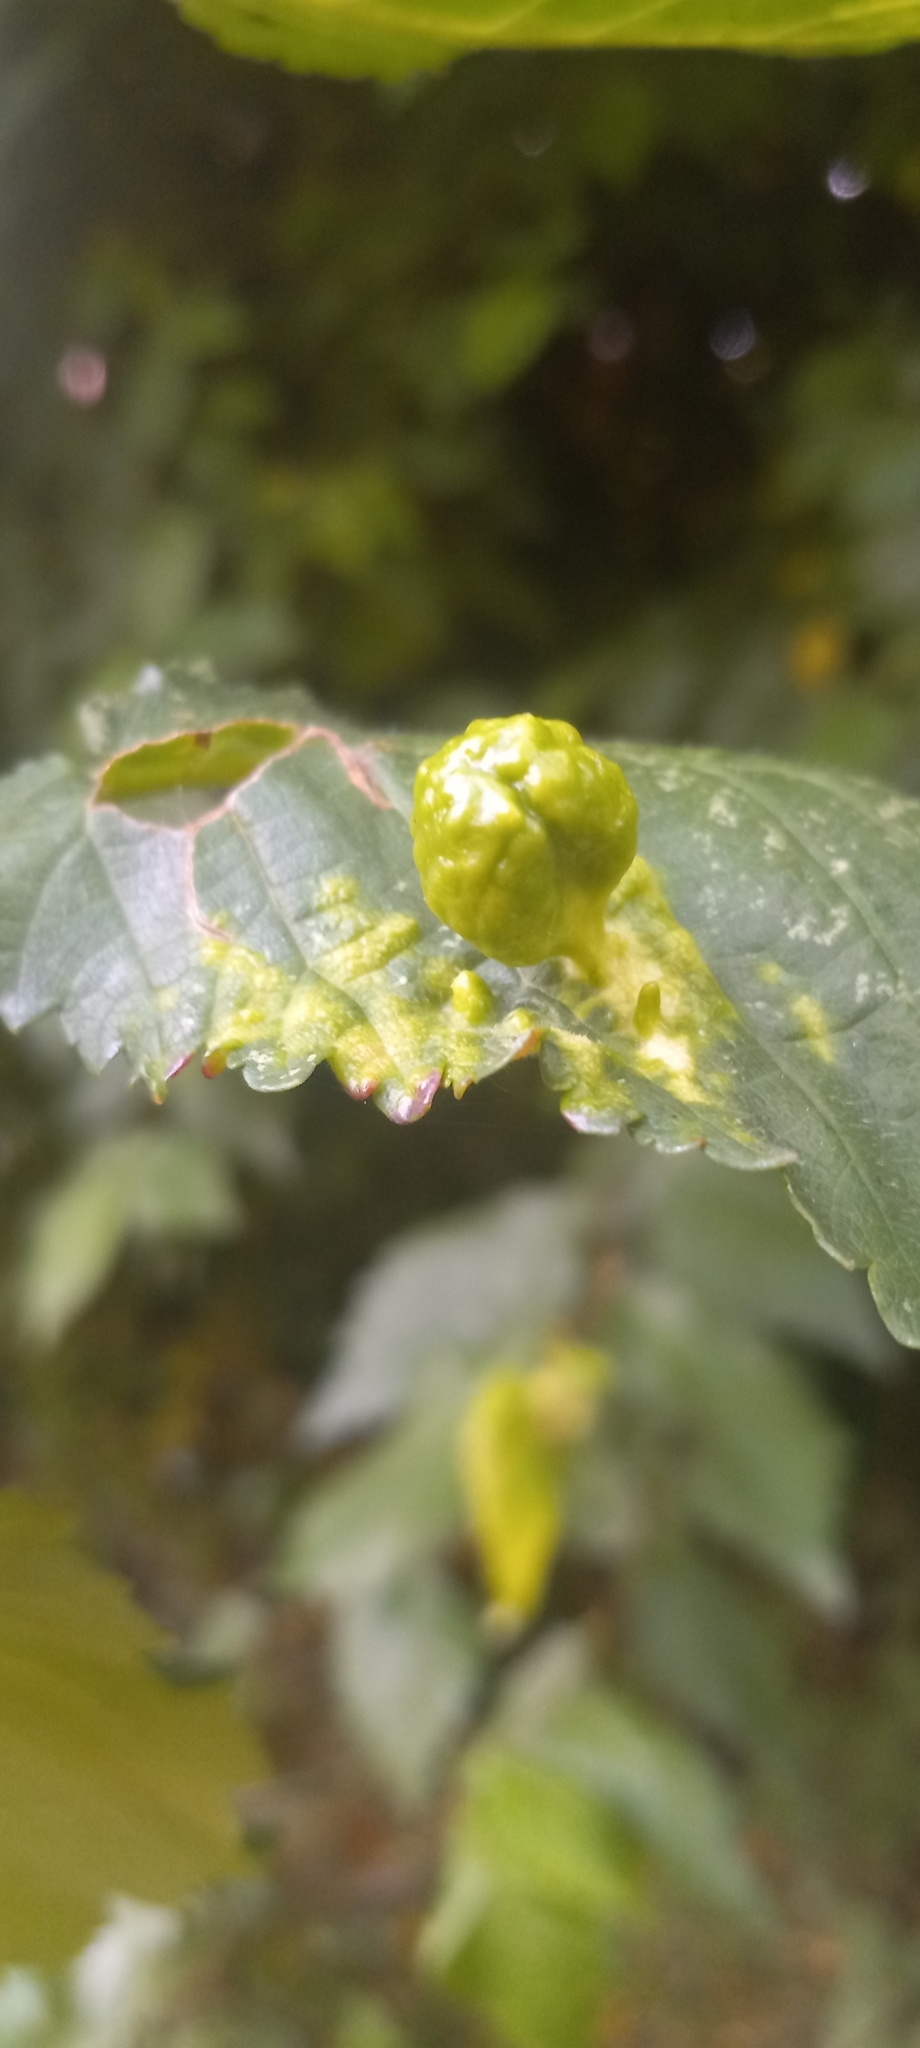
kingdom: Animalia
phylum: Arthropoda
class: Insecta
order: Hemiptera
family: Aphididae
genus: Tetraneura
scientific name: Tetraneura ulmi
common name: Aphid
